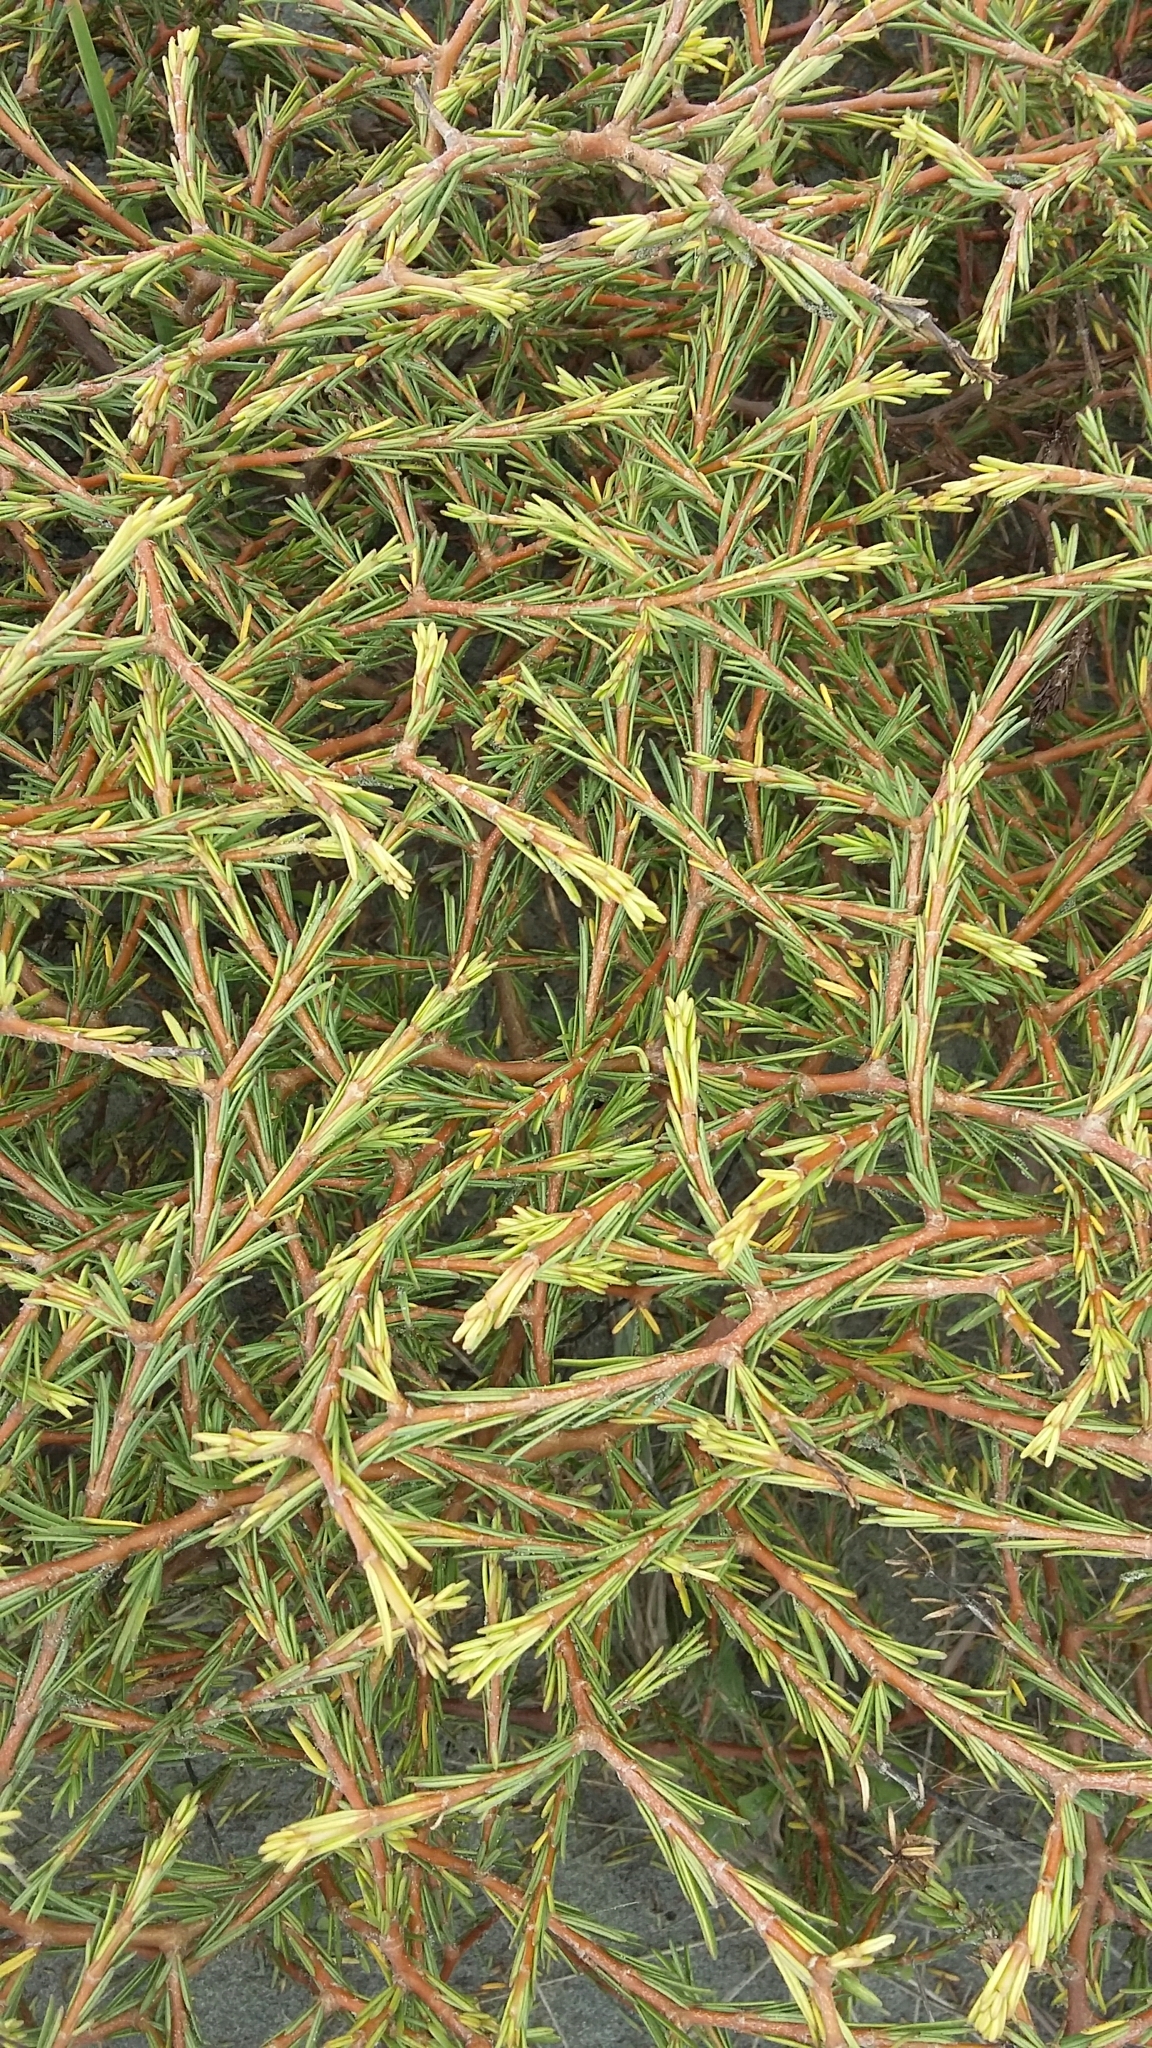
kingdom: Plantae
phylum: Tracheophyta
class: Magnoliopsida
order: Gentianales
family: Rubiaceae
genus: Coprosma
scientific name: Coprosma acerosa
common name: Sand coprosma
